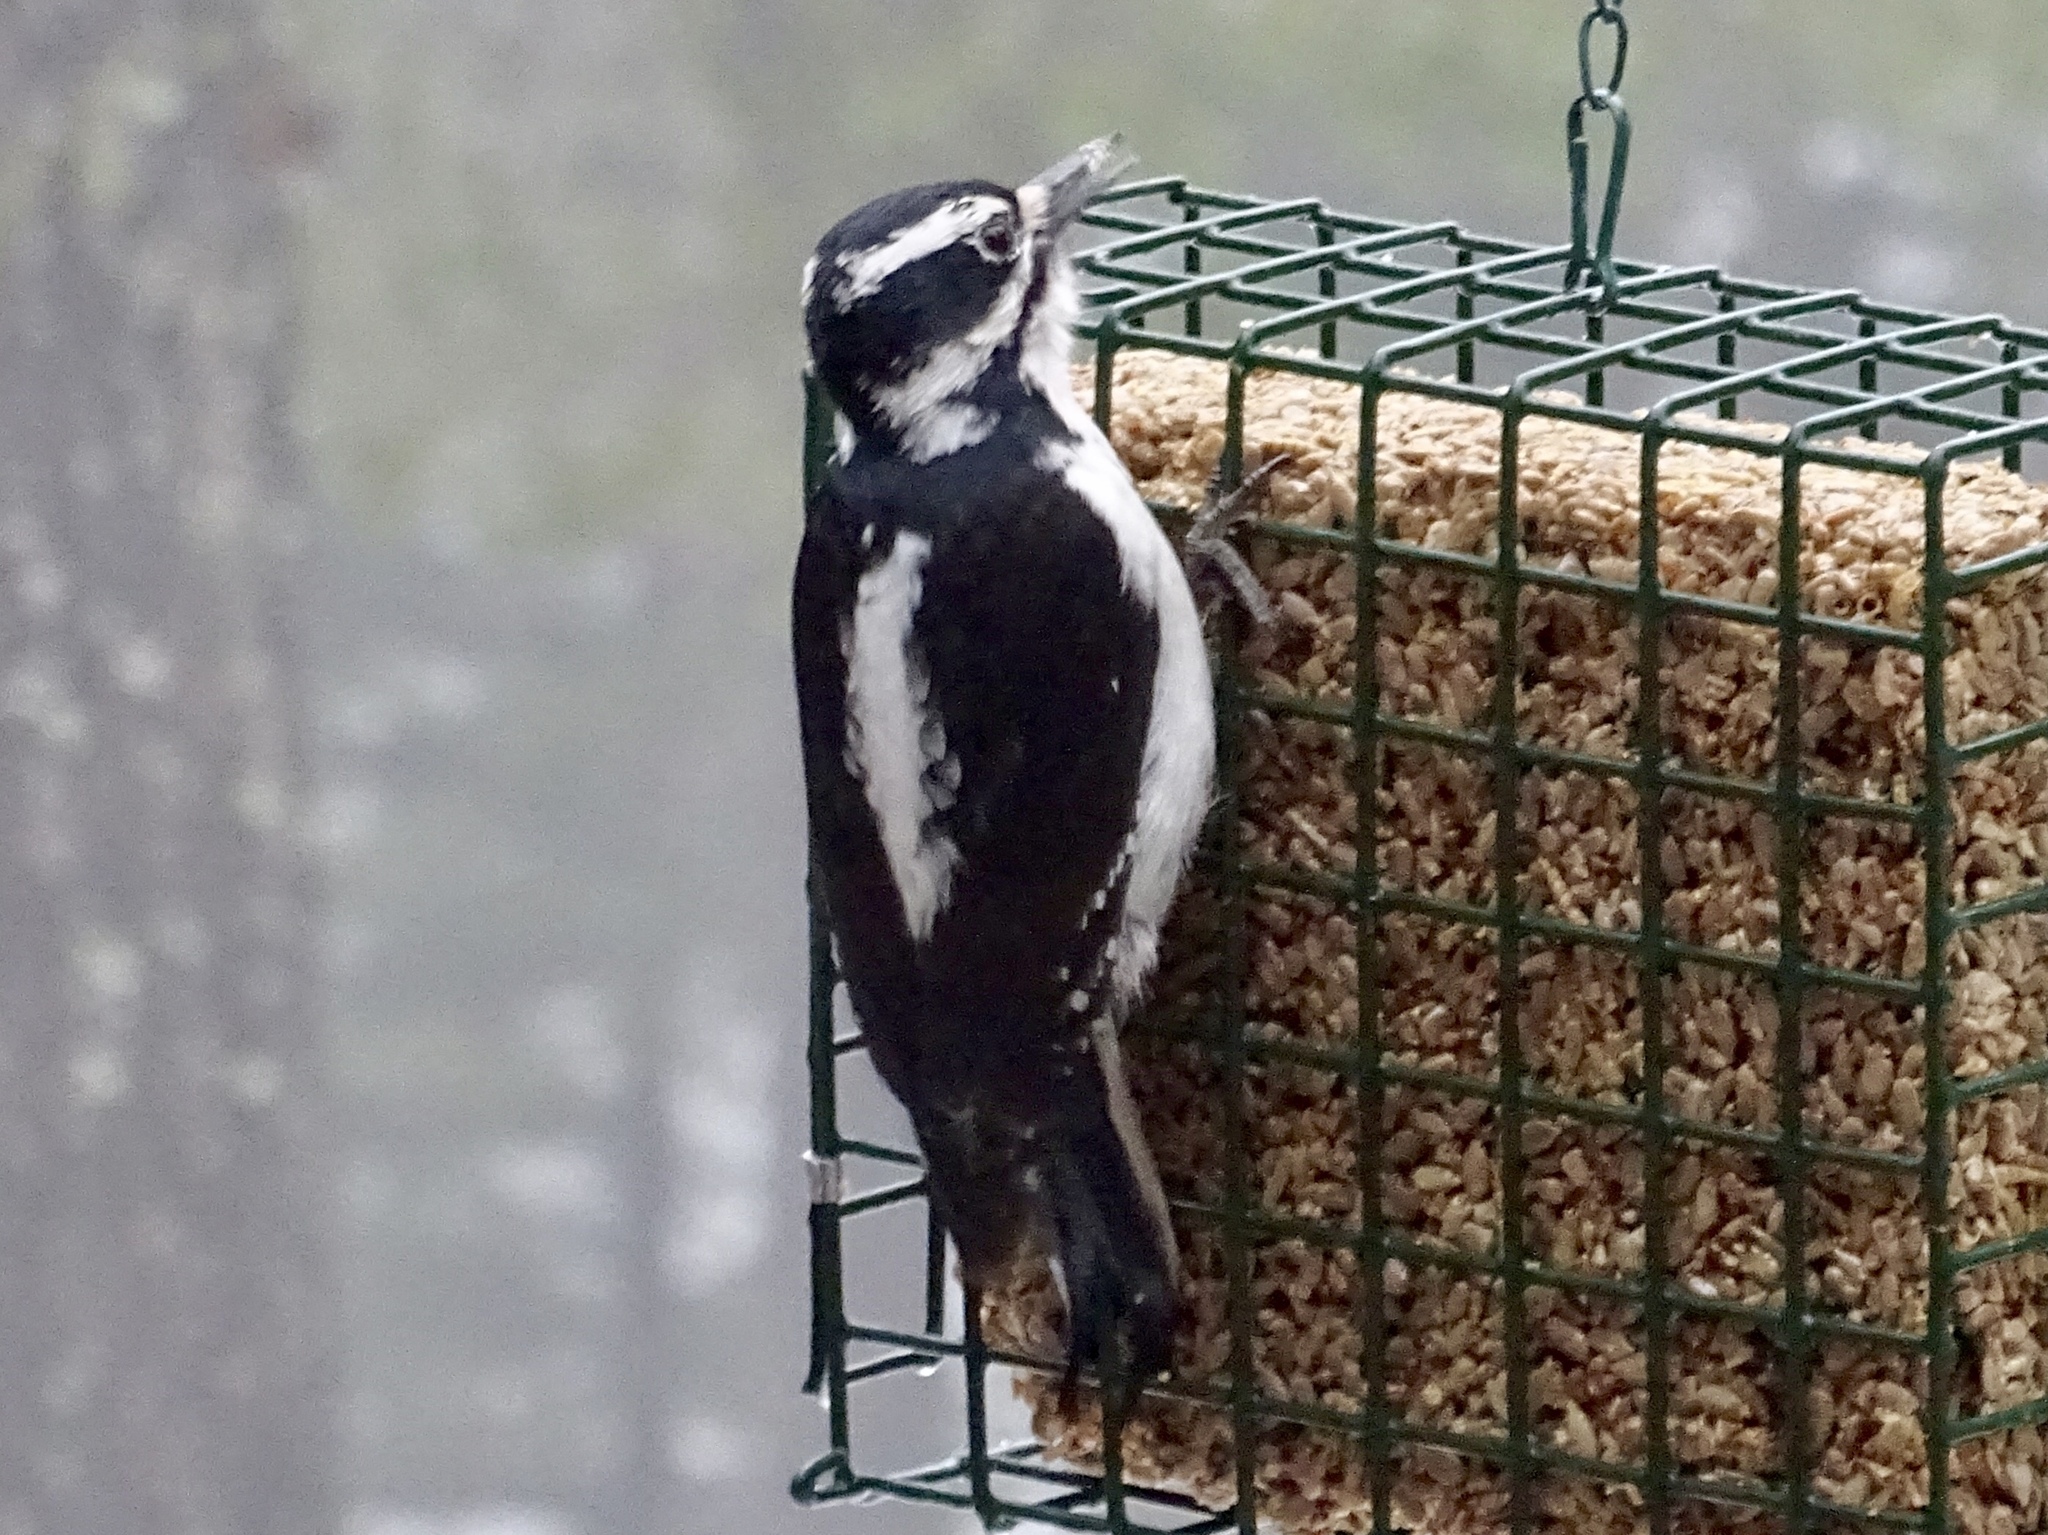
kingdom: Animalia
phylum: Chordata
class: Aves
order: Piciformes
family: Picidae
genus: Leuconotopicus
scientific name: Leuconotopicus villosus
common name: Hairy woodpecker
